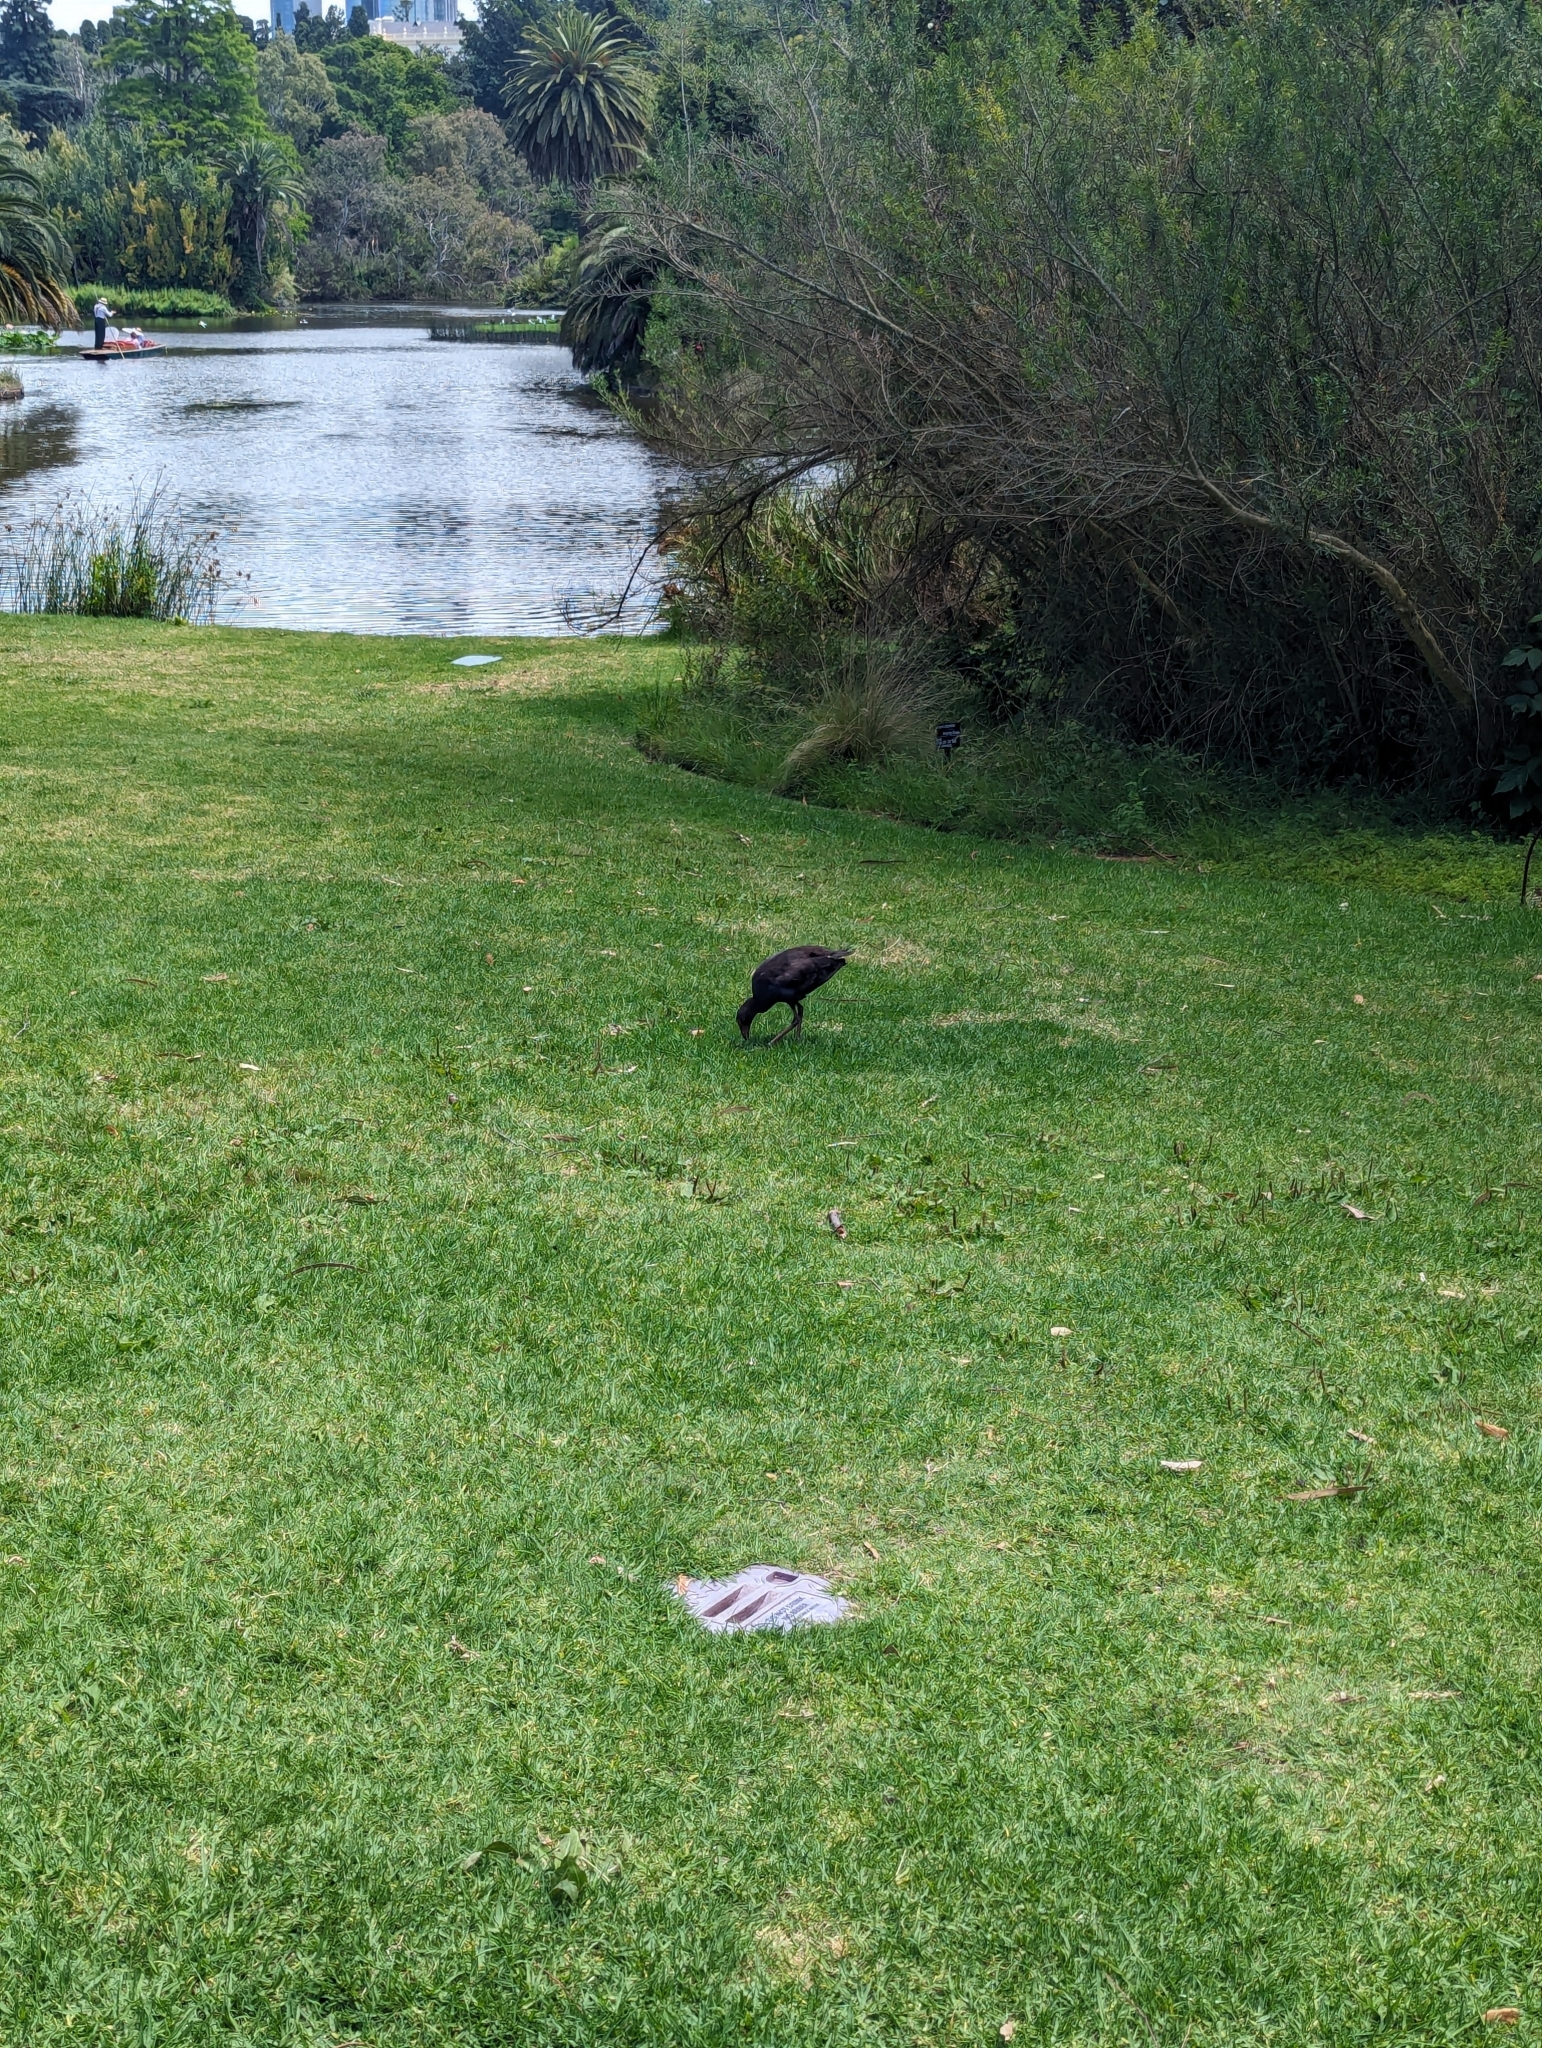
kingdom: Animalia
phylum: Chordata
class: Aves
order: Gruiformes
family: Rallidae
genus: Porphyrio
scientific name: Porphyrio melanotus
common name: Australasian swamphen
